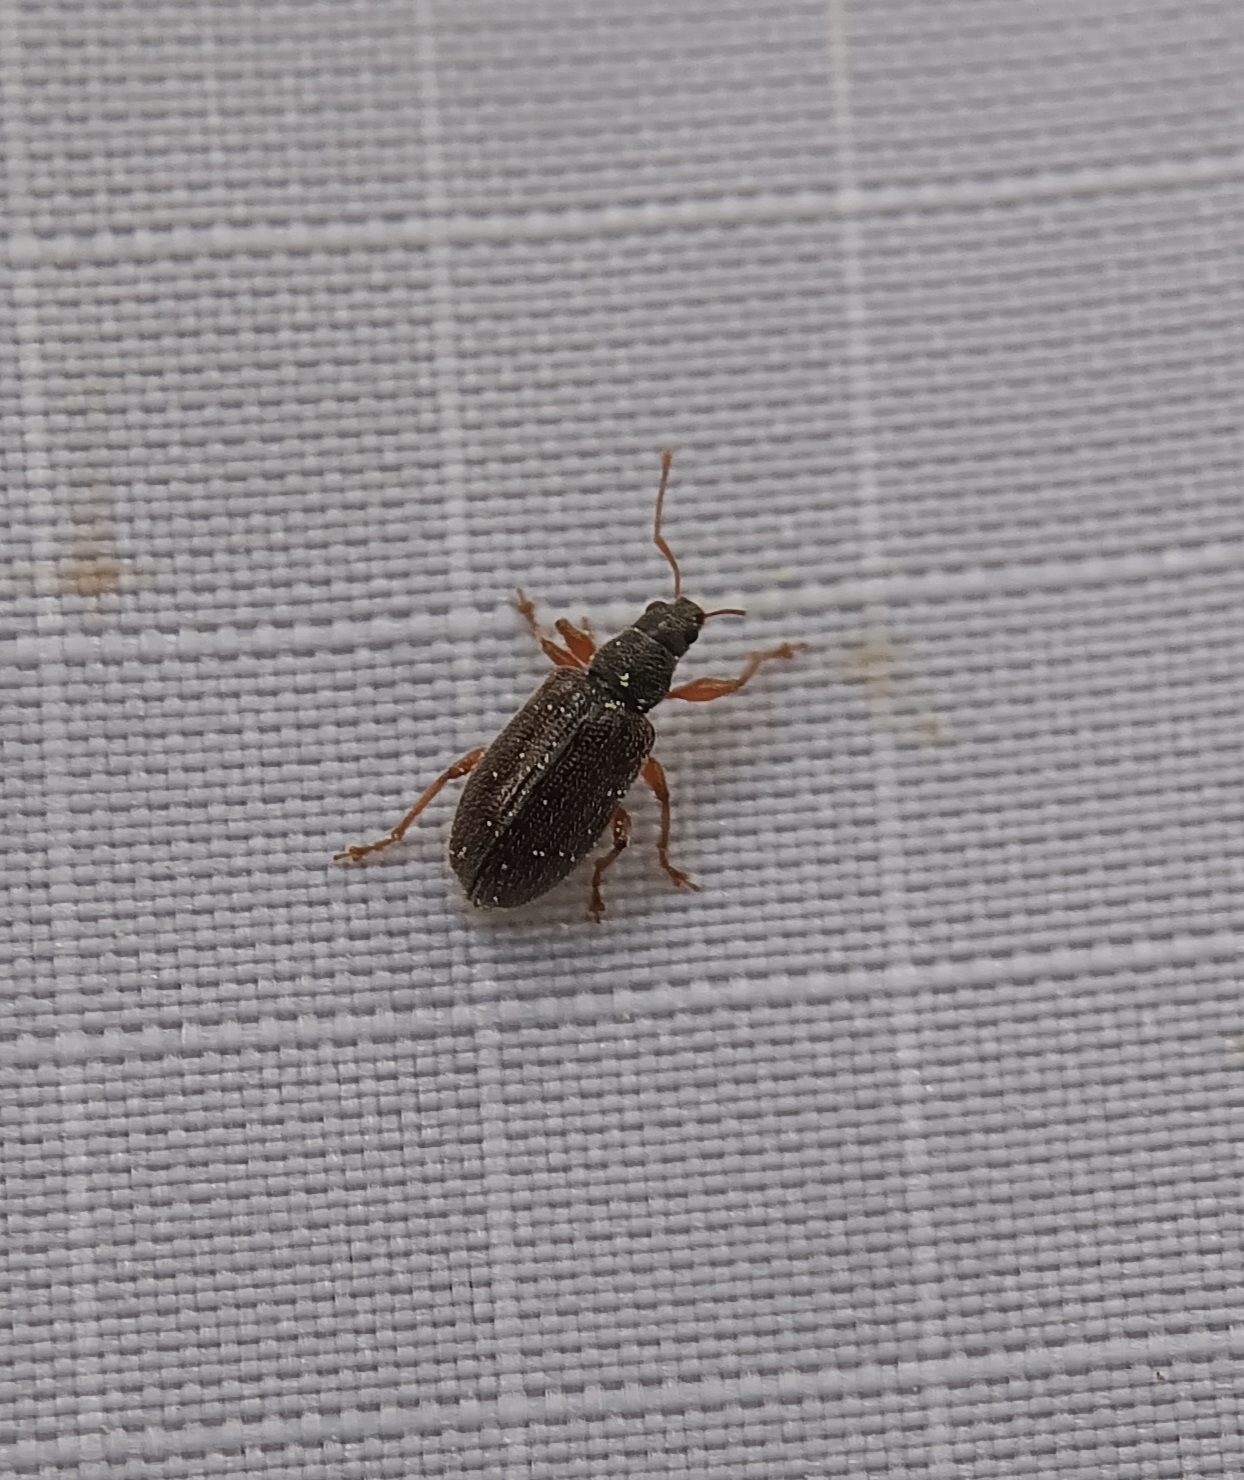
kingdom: Animalia
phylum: Arthropoda
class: Insecta
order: Coleoptera
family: Curculionidae
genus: Phyllobius
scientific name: Phyllobius oblongus
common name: Brown leaf weevil
